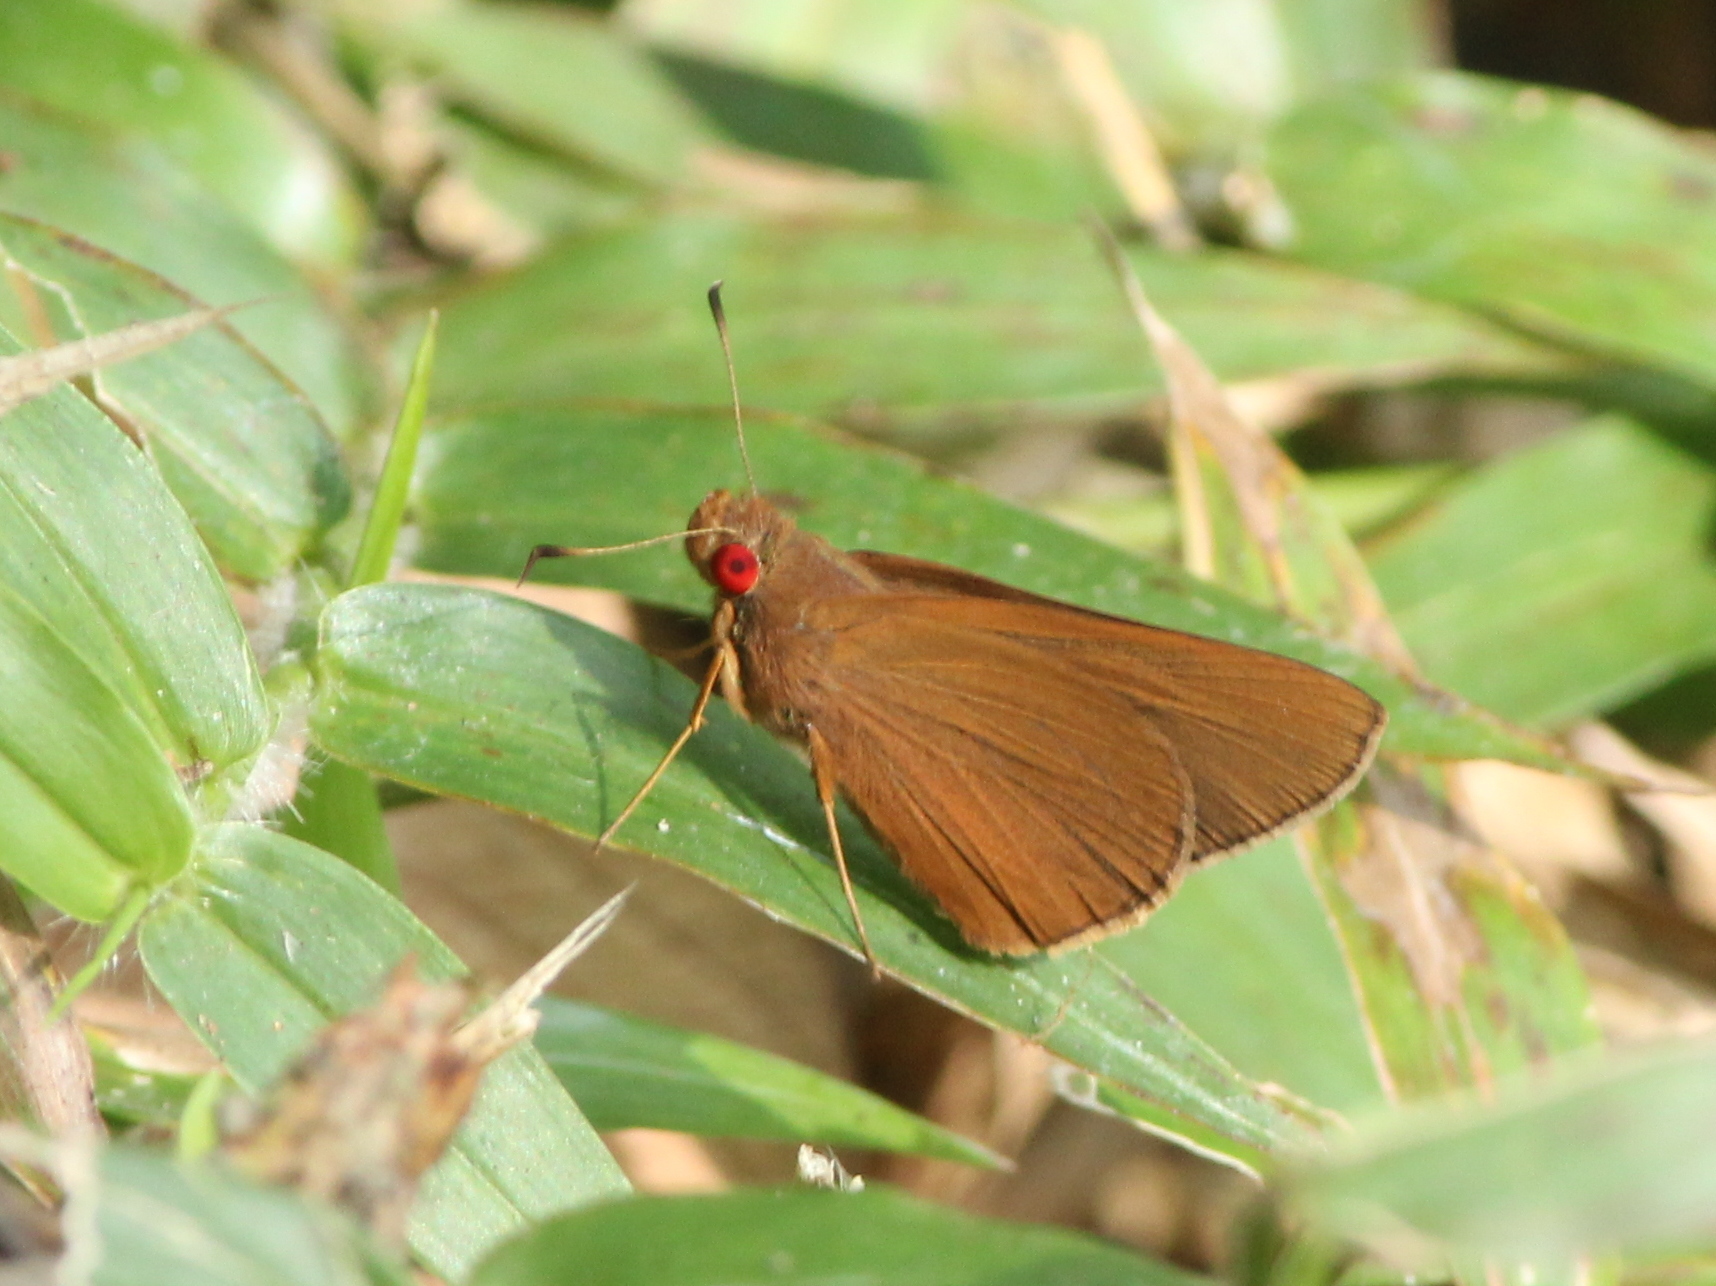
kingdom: Animalia
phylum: Arthropoda
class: Insecta
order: Lepidoptera
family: Hesperiidae
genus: Matapa
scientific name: Matapa aria
